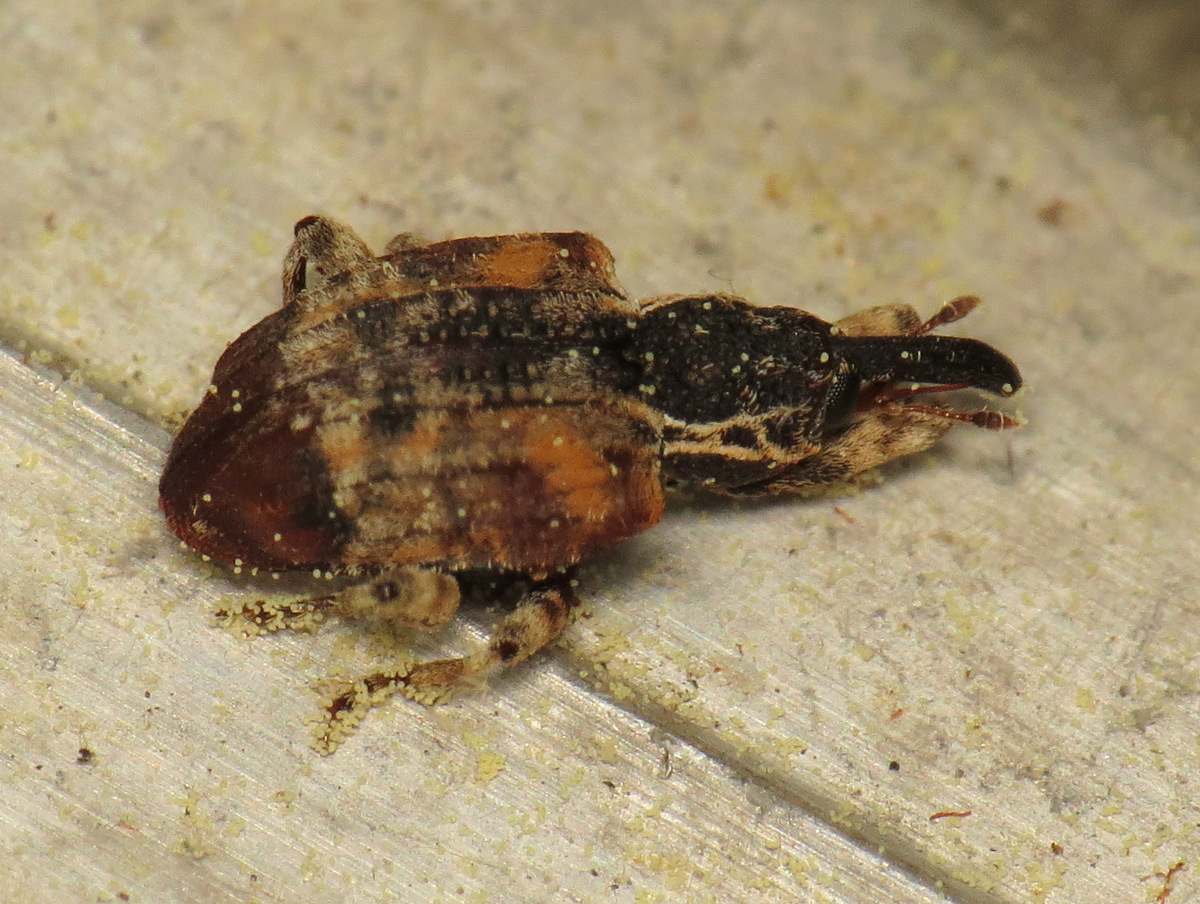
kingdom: Animalia
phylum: Arthropoda
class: Insecta
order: Coleoptera
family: Curculionidae
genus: Conotrachelus
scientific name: Conotrachelus anaglypticus
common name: Cambium curculio
